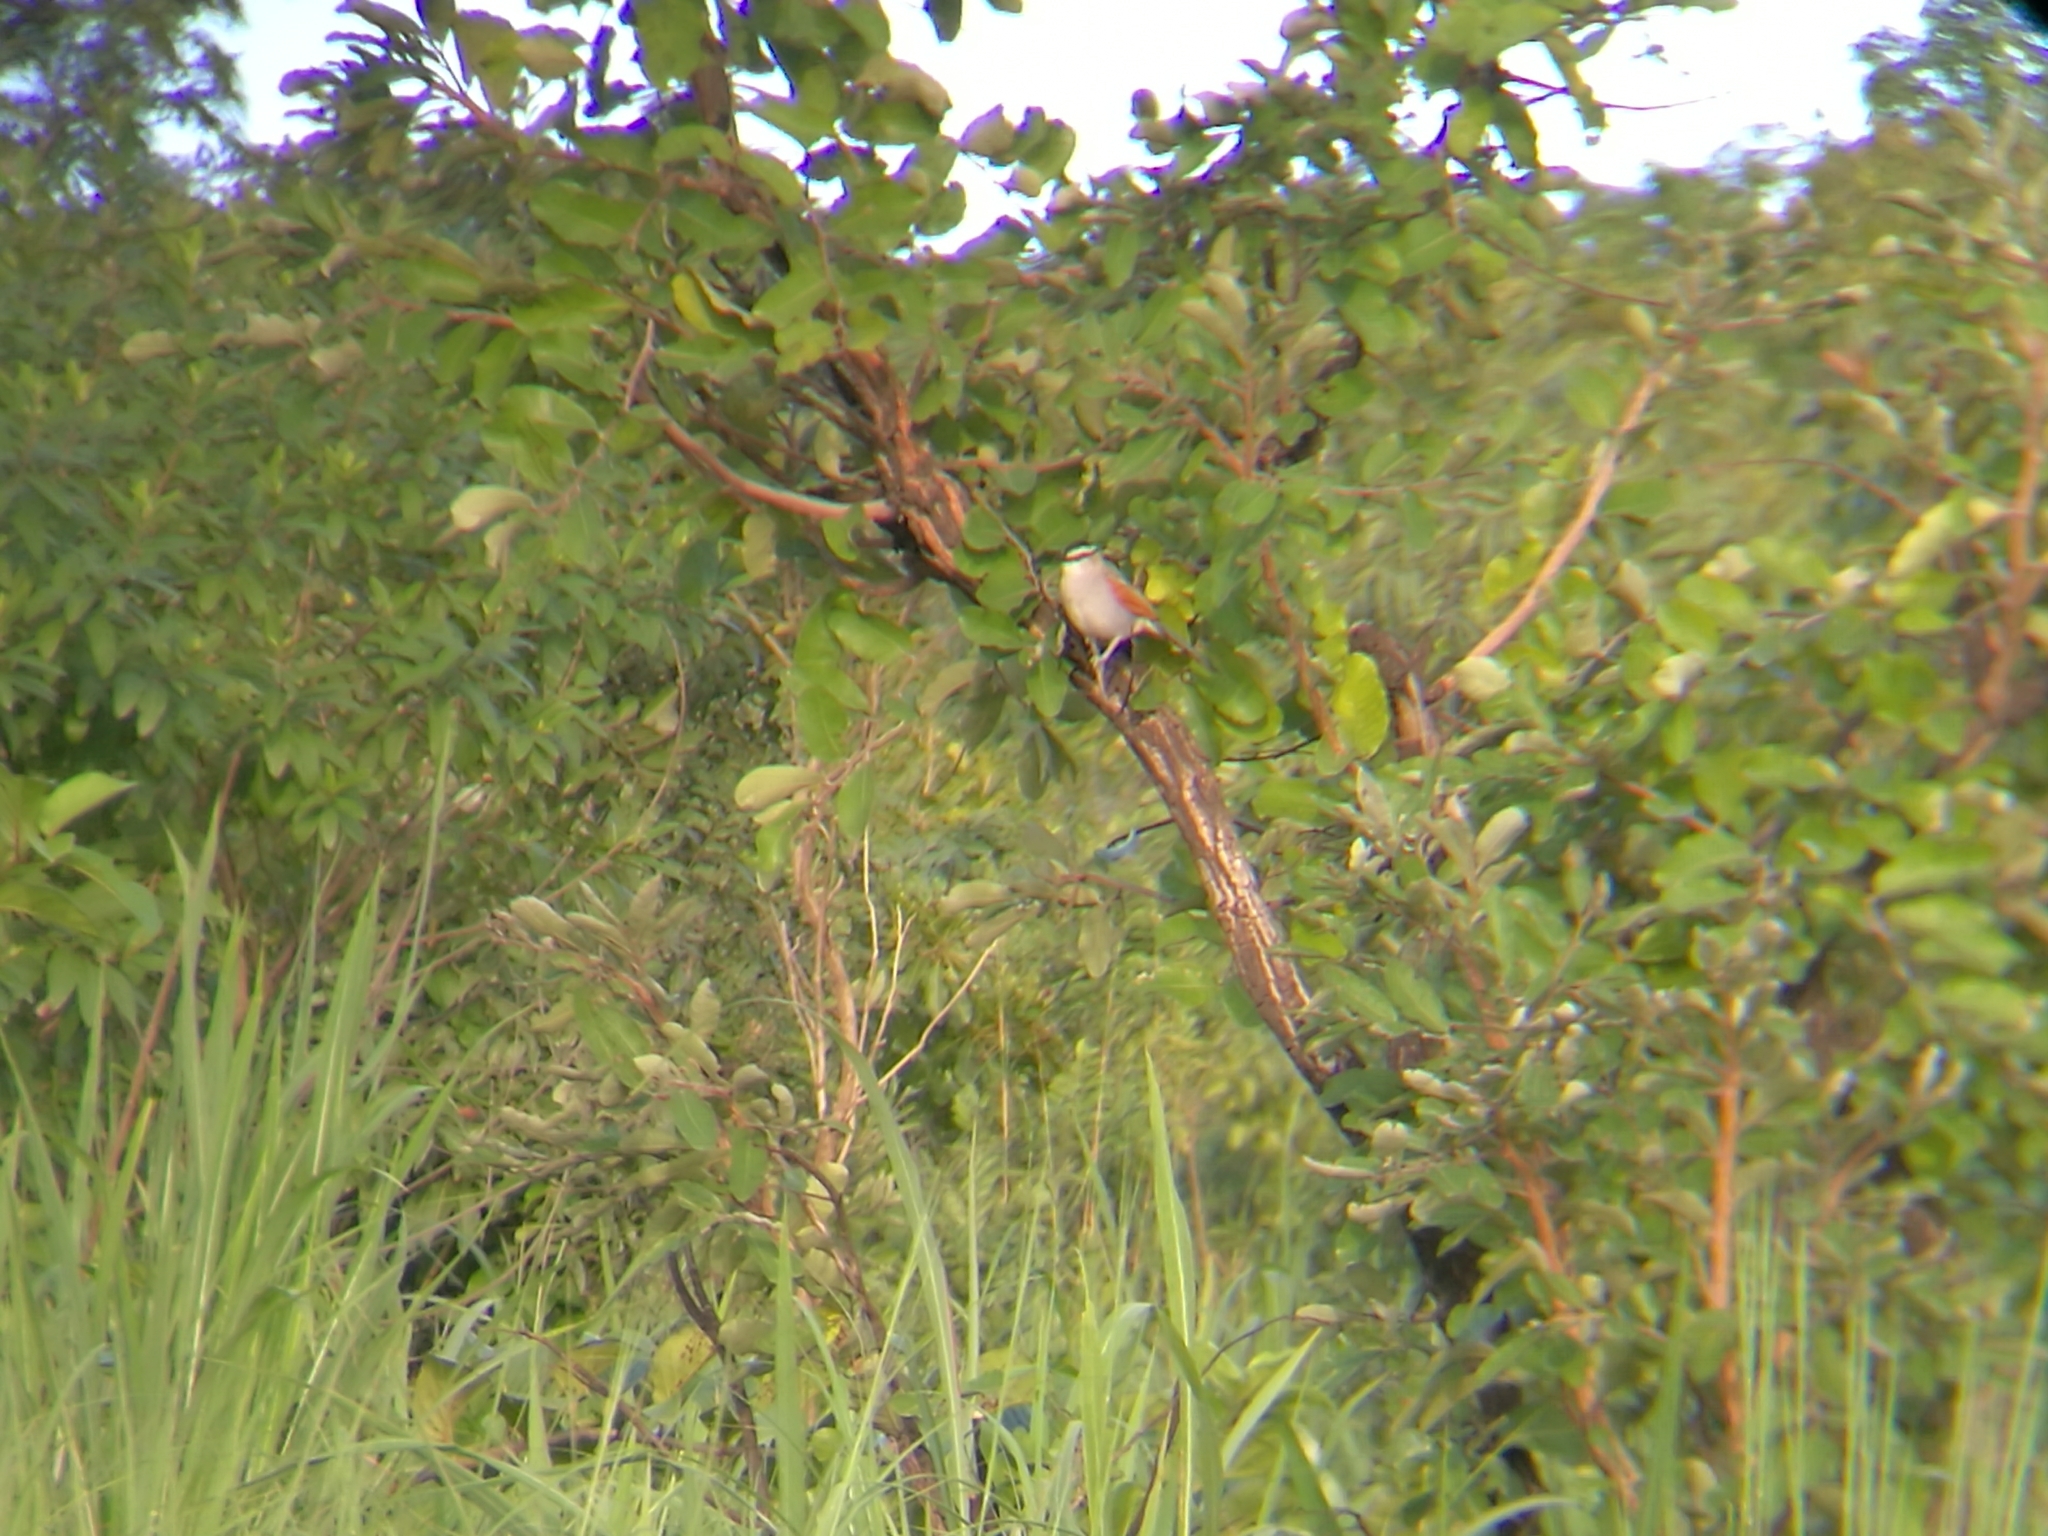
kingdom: Animalia
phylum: Chordata
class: Aves
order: Passeriformes
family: Malaconotidae
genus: Tchagra
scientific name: Tchagra senegalus
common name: Black-crowned tchagra
